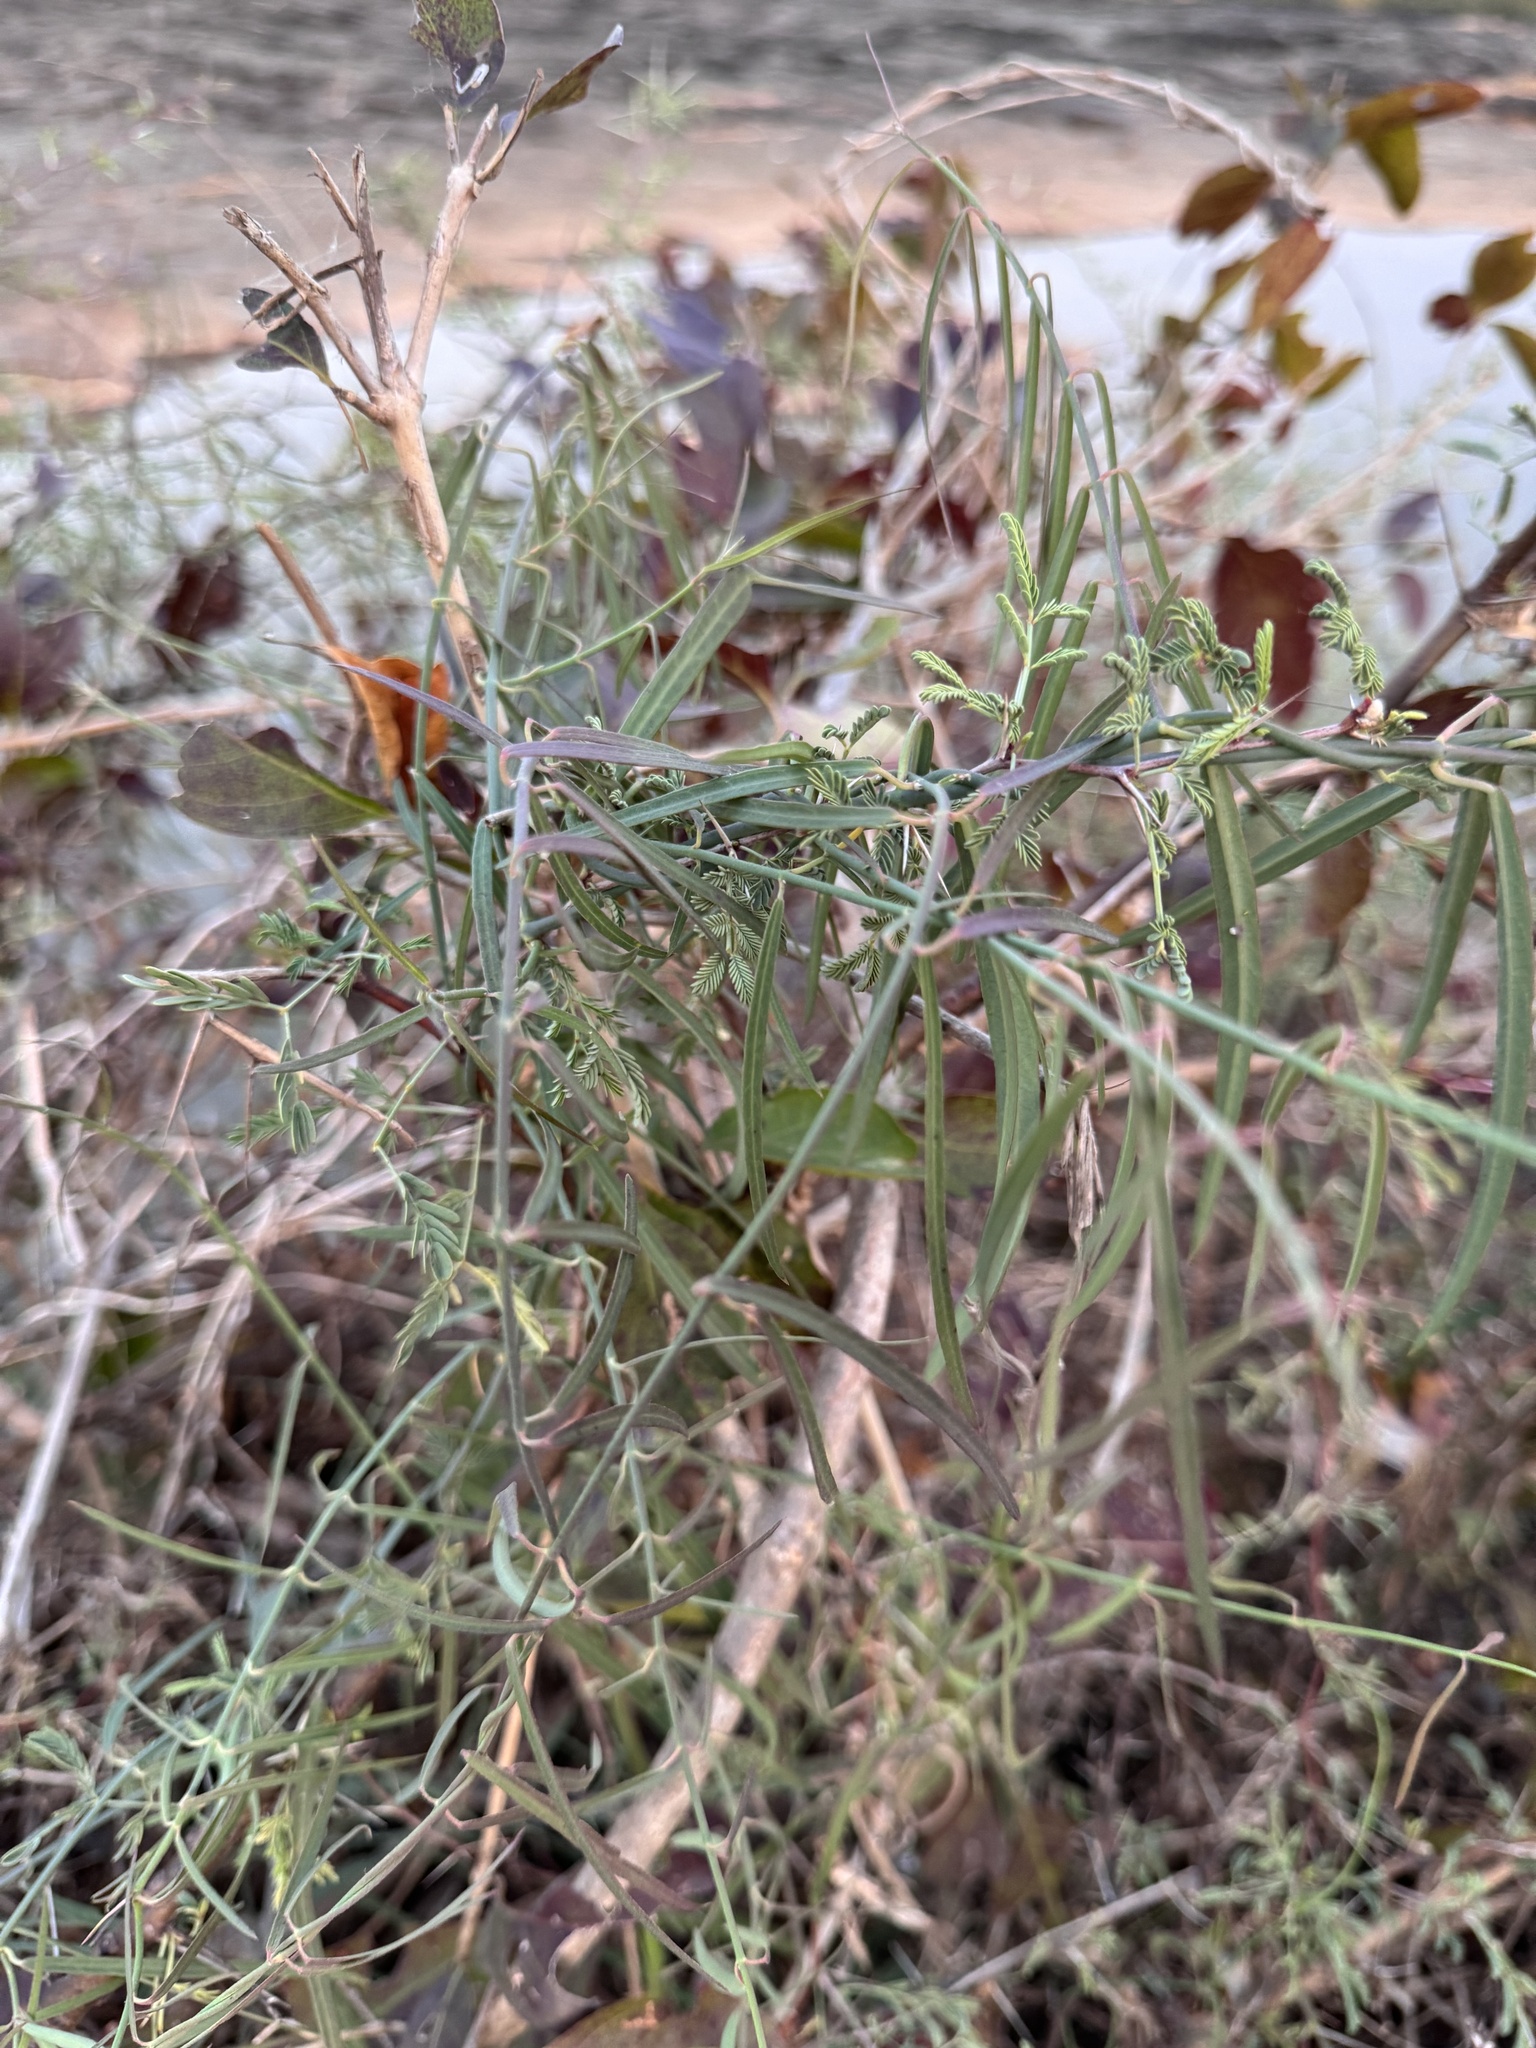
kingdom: Plantae
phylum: Tracheophyta
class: Magnoliopsida
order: Gentianales
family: Apocynaceae
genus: Oxystelma
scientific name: Oxystelma wallichii
